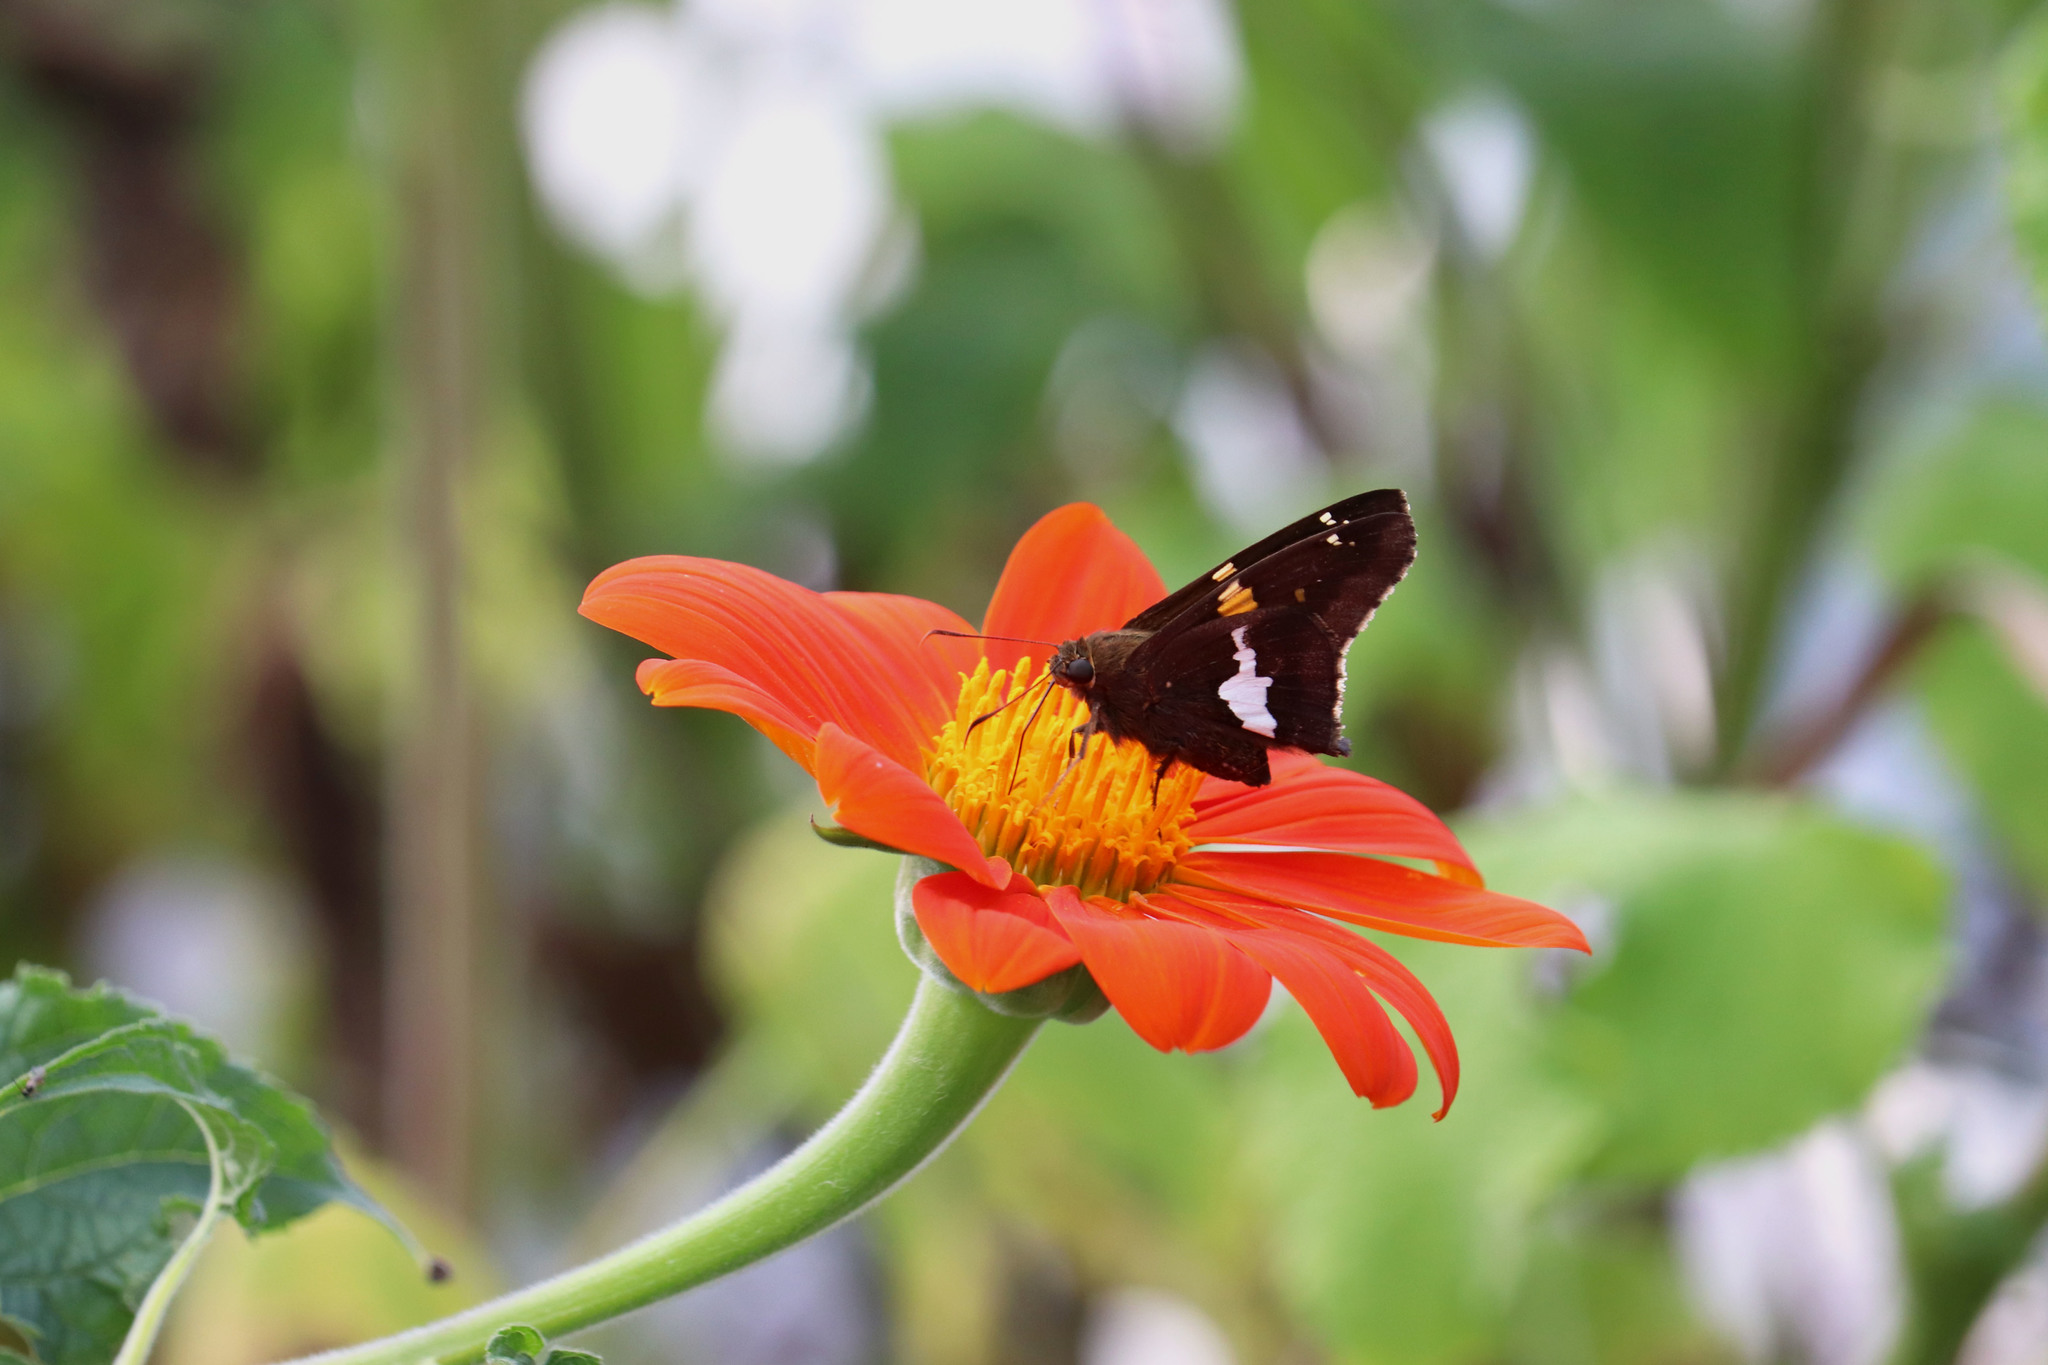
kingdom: Animalia
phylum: Arthropoda
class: Insecta
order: Lepidoptera
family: Hesperiidae
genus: Epargyreus
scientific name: Epargyreus clarus
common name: Silver-spotted skipper
